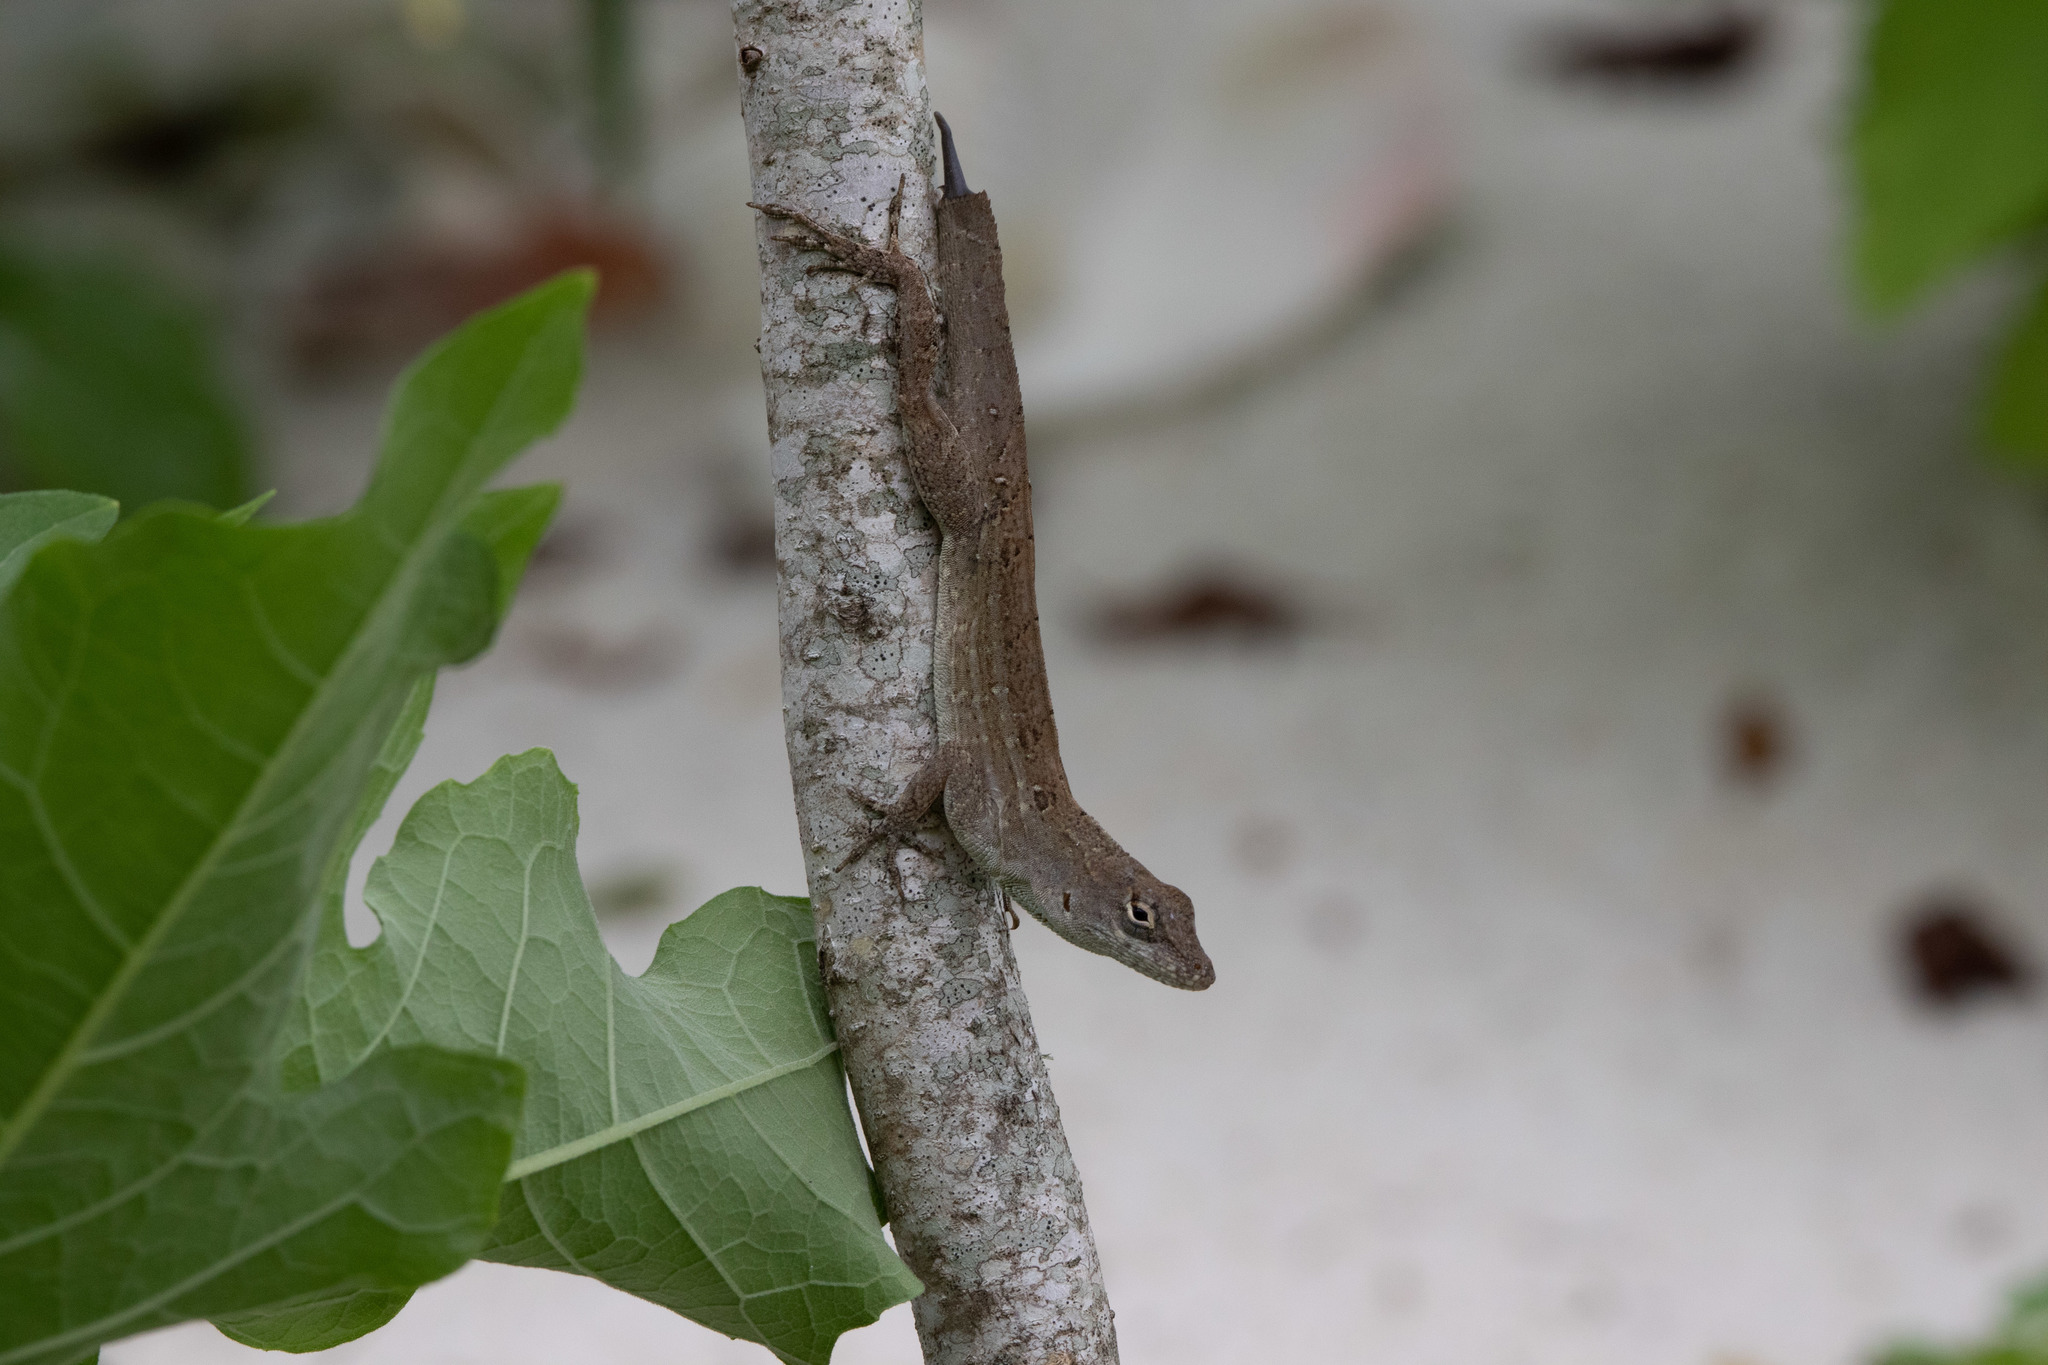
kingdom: Animalia
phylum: Chordata
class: Squamata
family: Dactyloidae
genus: Anolis
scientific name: Anolis sagrei
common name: Brown anole
